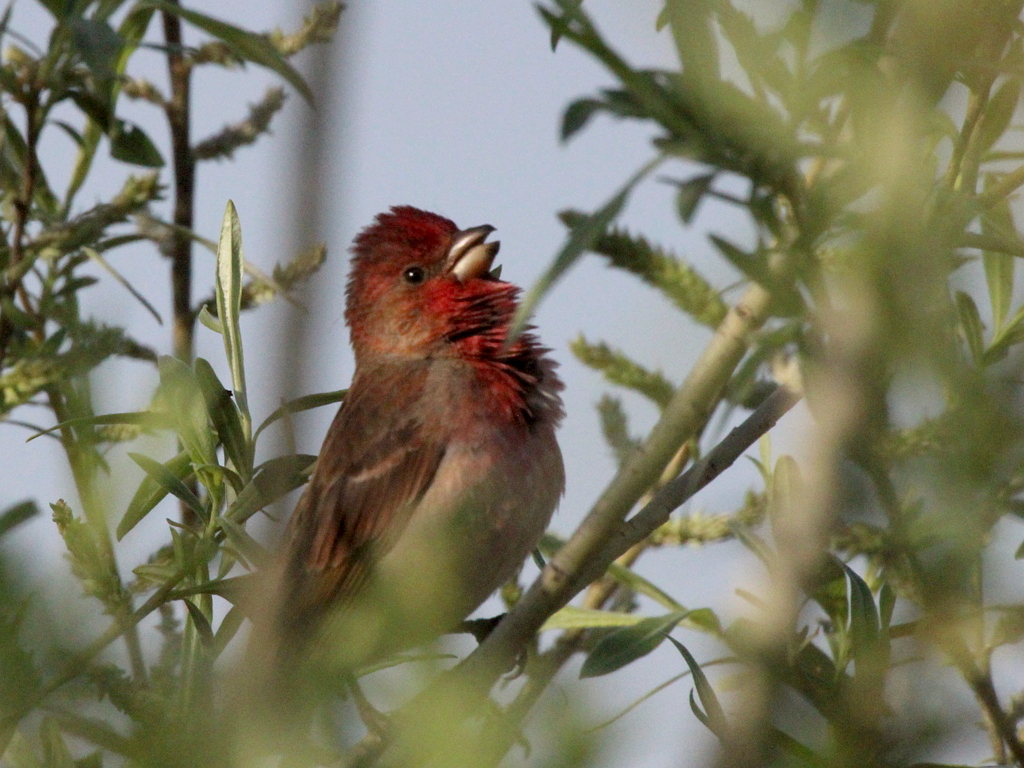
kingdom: Animalia
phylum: Chordata
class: Aves
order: Passeriformes
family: Fringillidae
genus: Carpodacus
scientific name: Carpodacus erythrinus
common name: Common rosefinch
